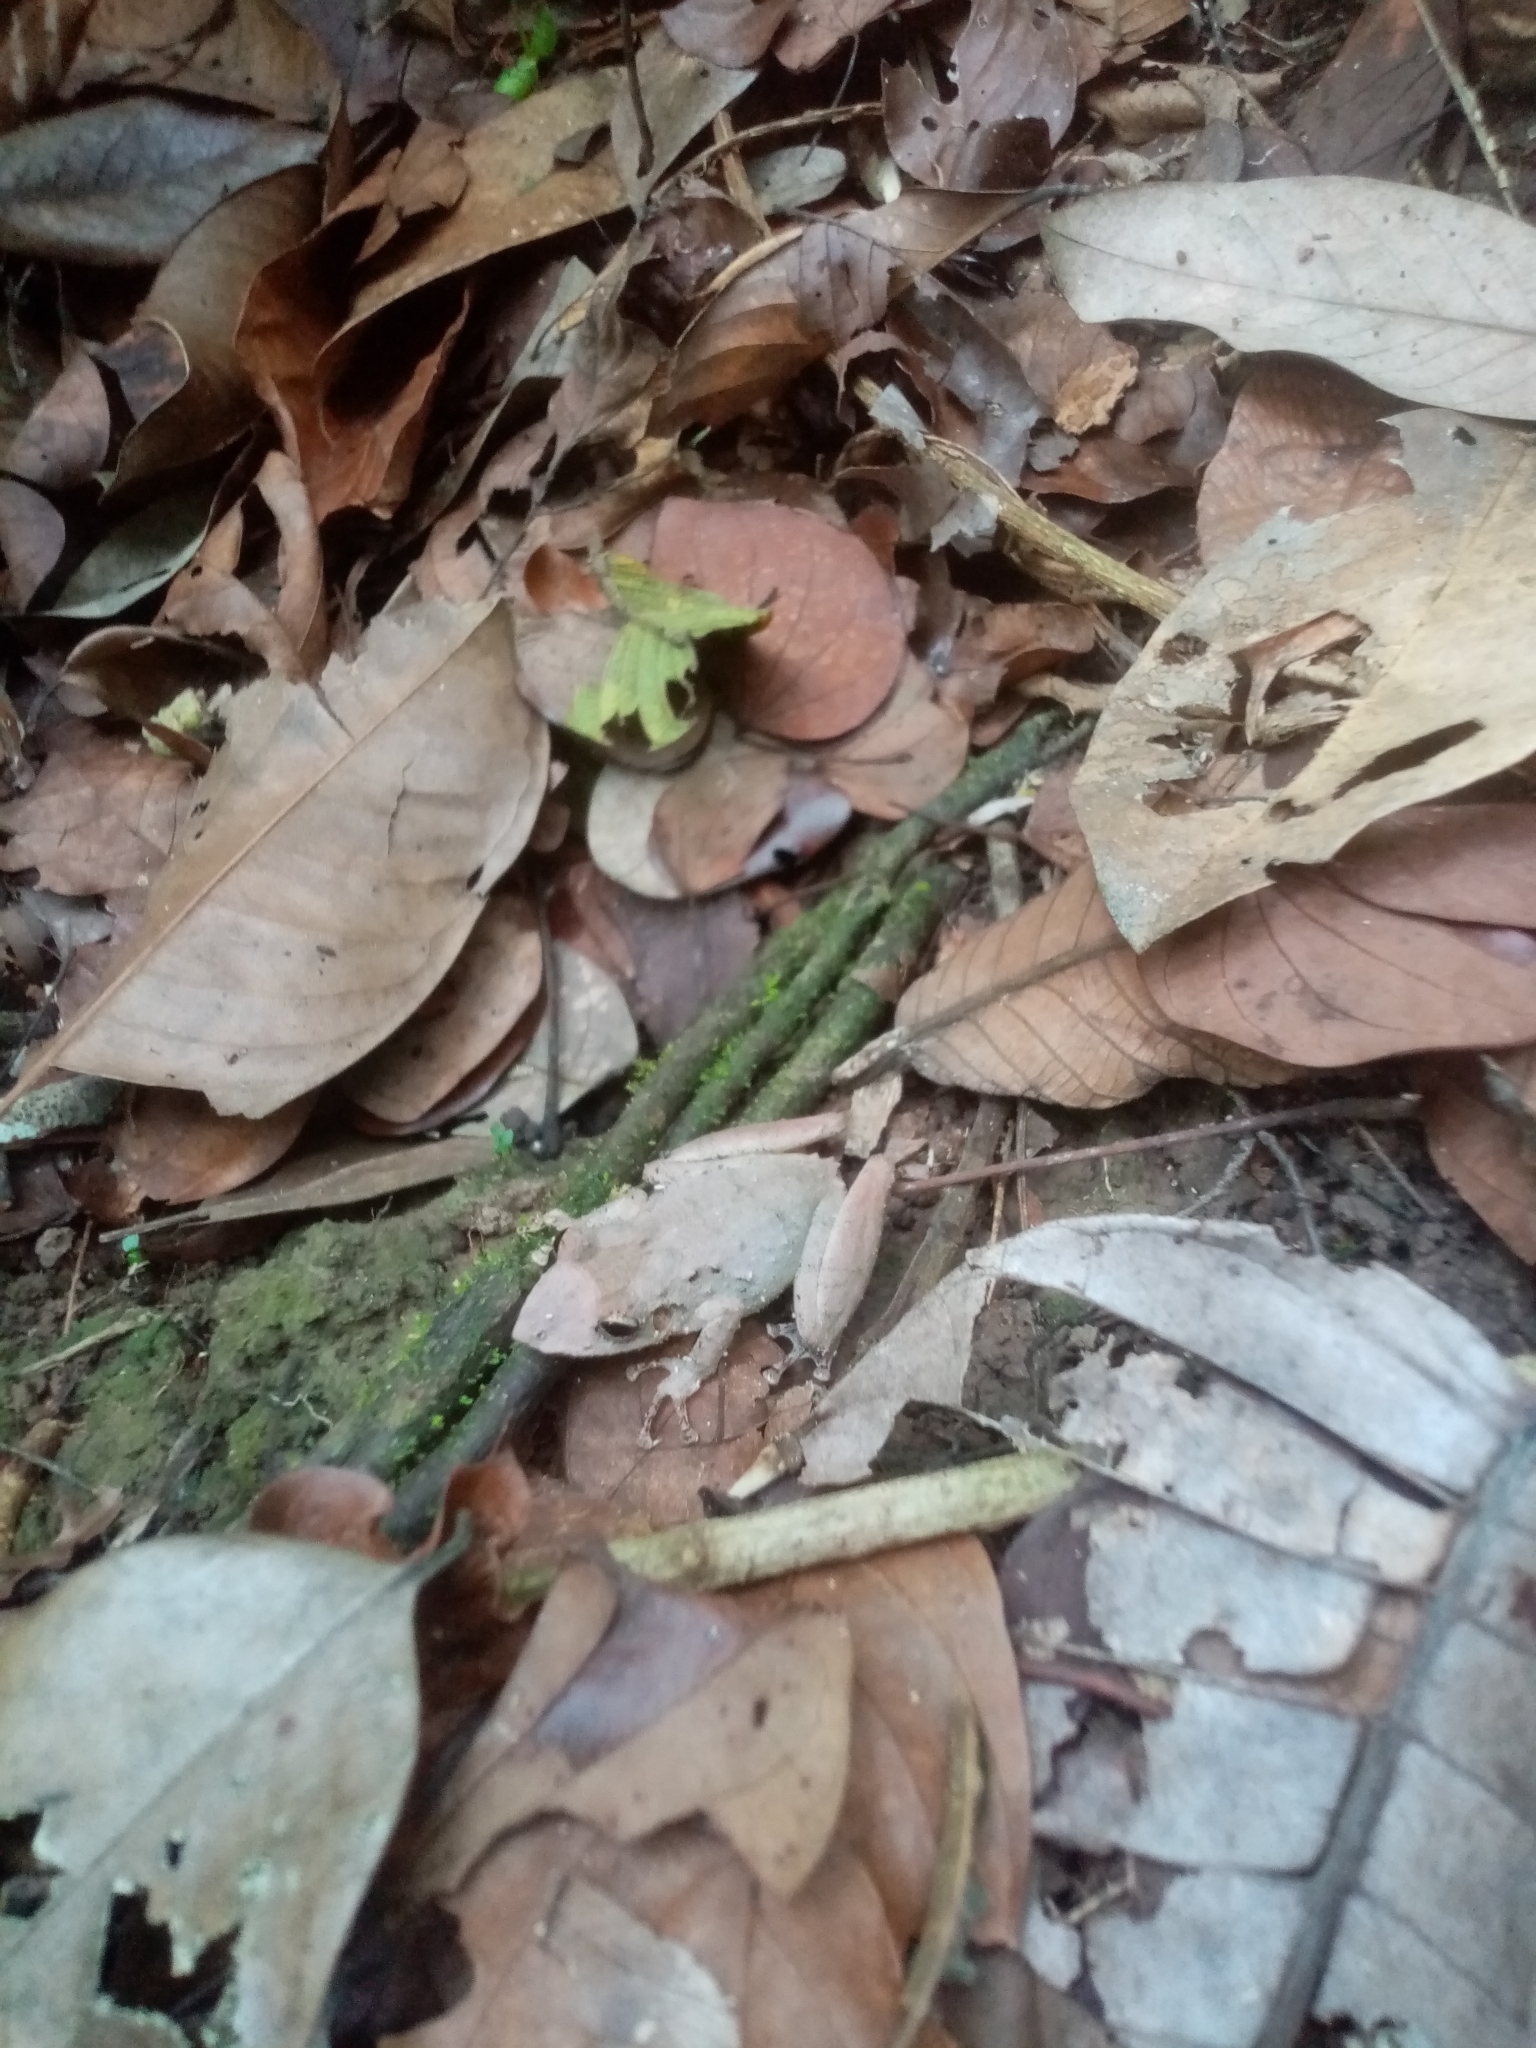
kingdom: Animalia
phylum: Chordata
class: Amphibia
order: Anura
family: Hylidae
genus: Scinax
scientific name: Scinax rostratus
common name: Caracas snouted treefrog
